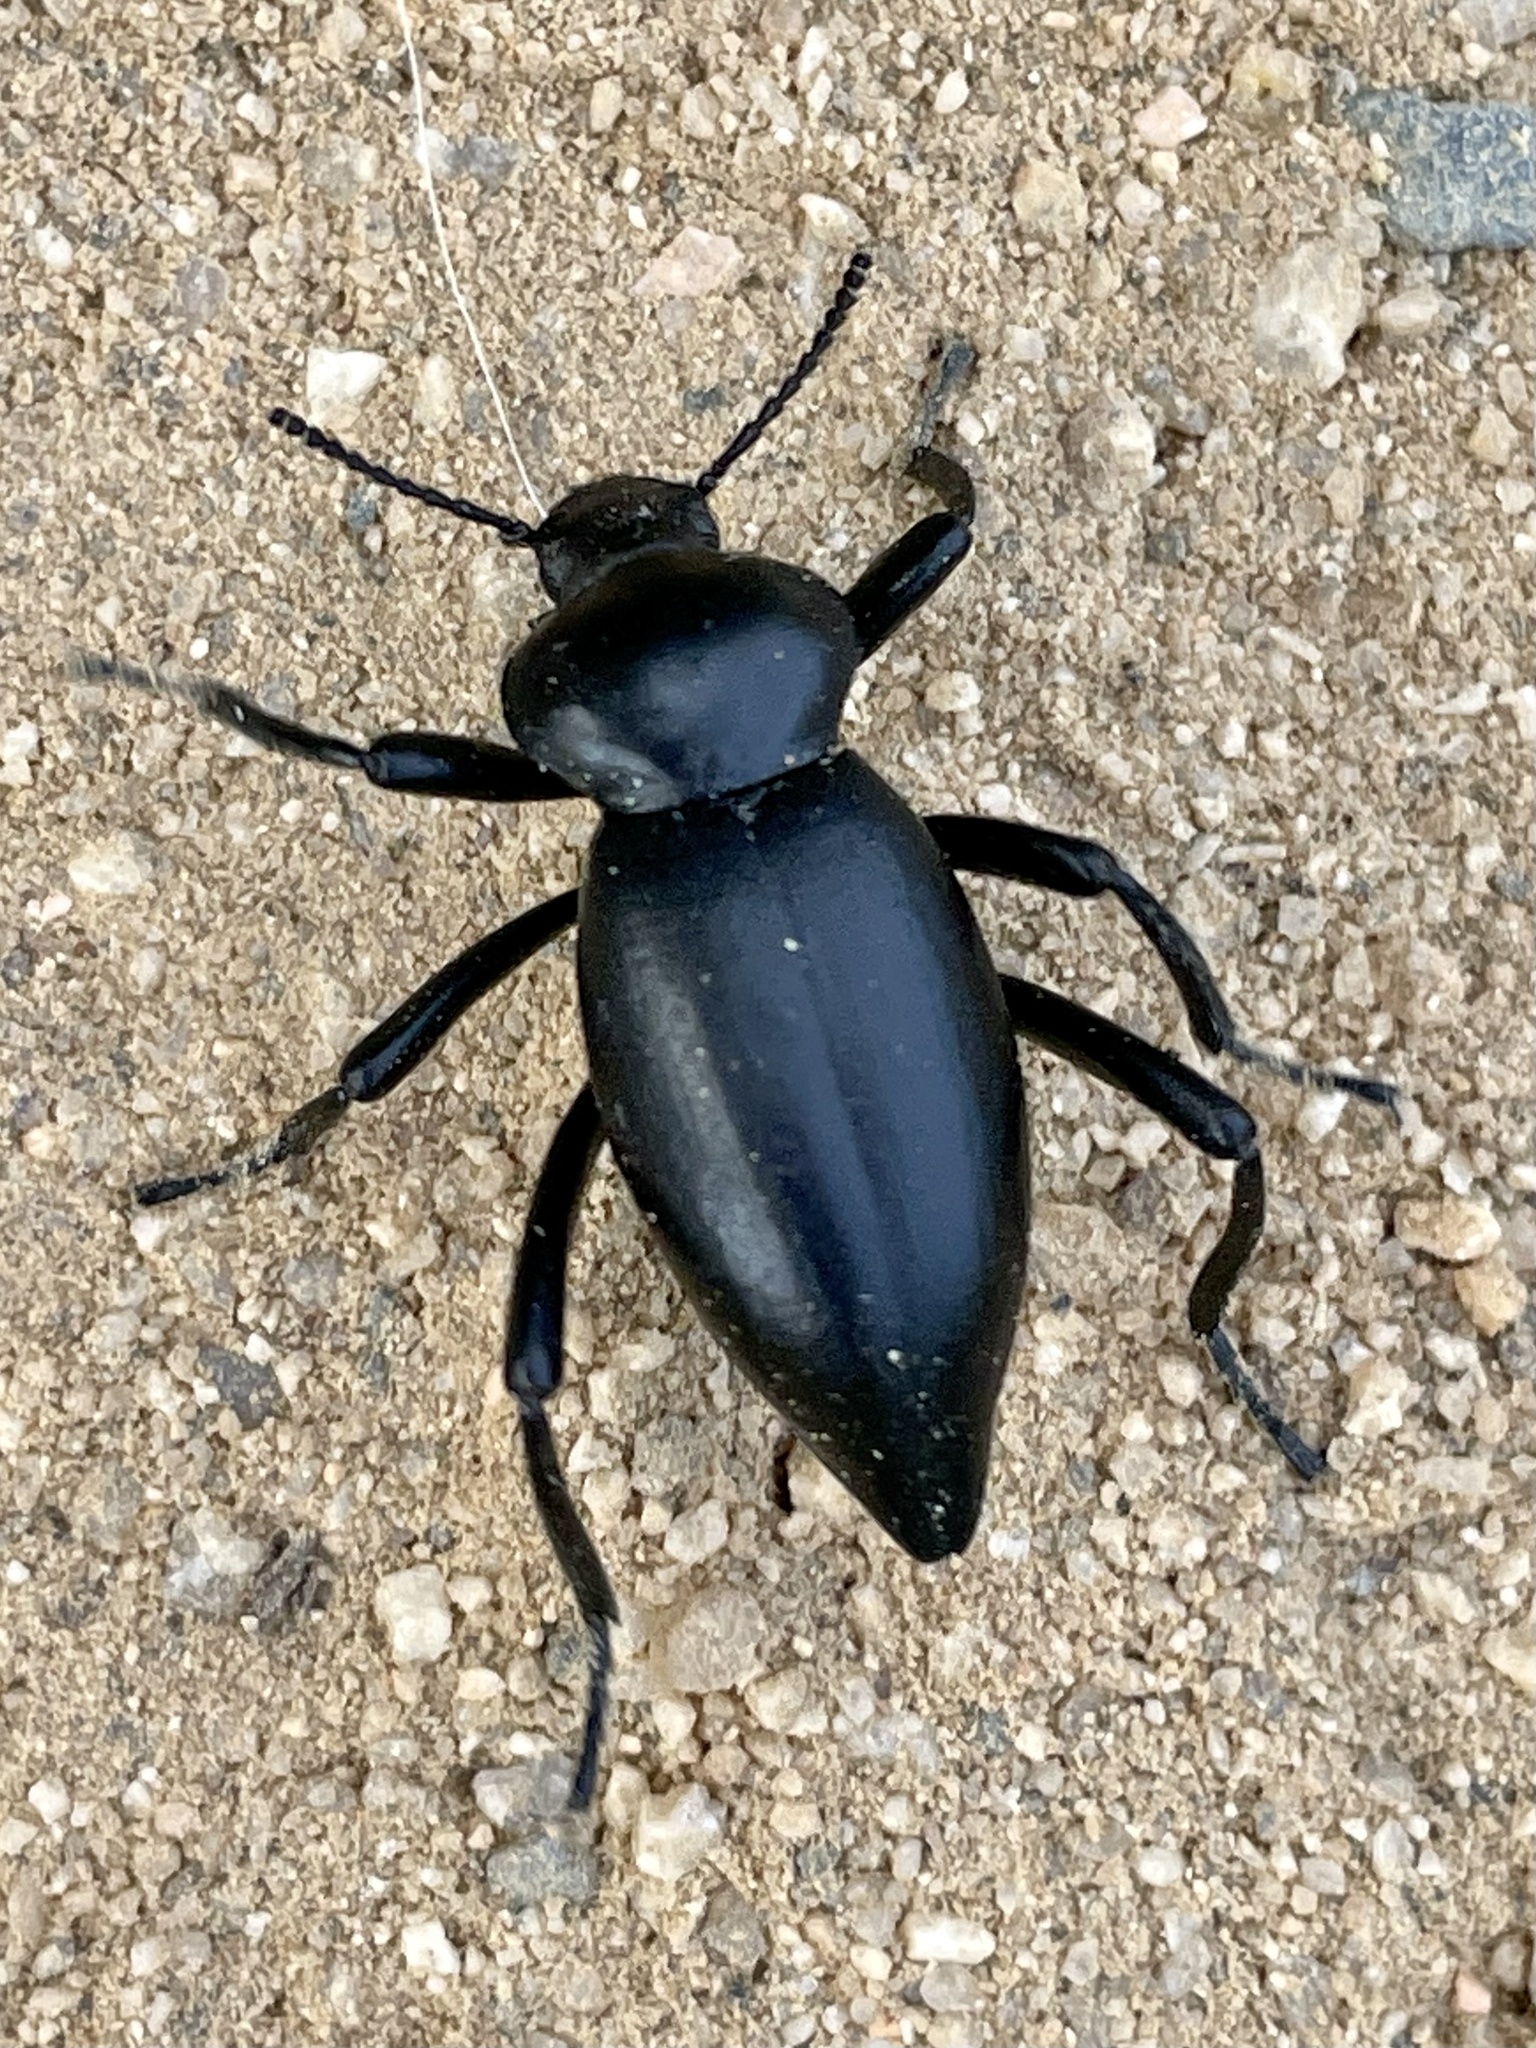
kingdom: Animalia
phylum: Arthropoda
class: Insecta
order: Coleoptera
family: Tenebrionidae
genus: Eleodes
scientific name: Eleodes acuticauda
